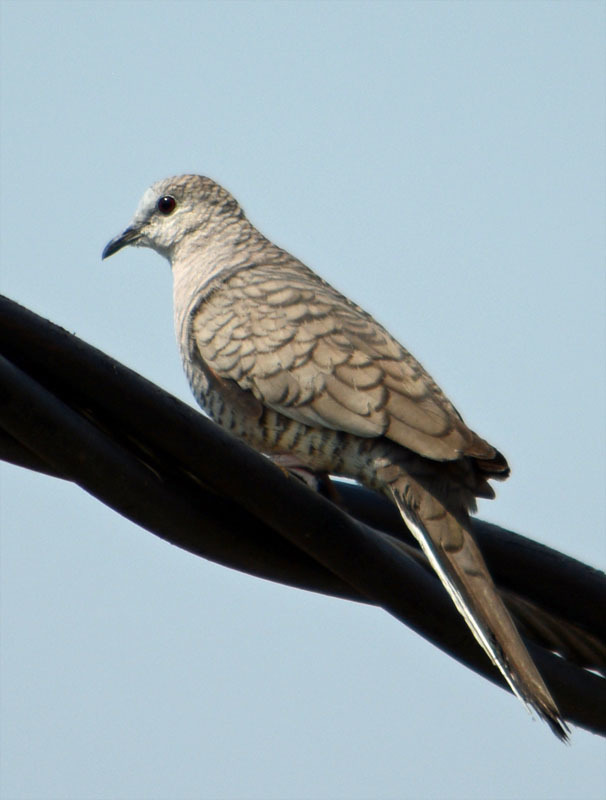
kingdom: Animalia
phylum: Chordata
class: Aves
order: Columbiformes
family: Columbidae
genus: Columbina
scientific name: Columbina inca
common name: Inca dove
